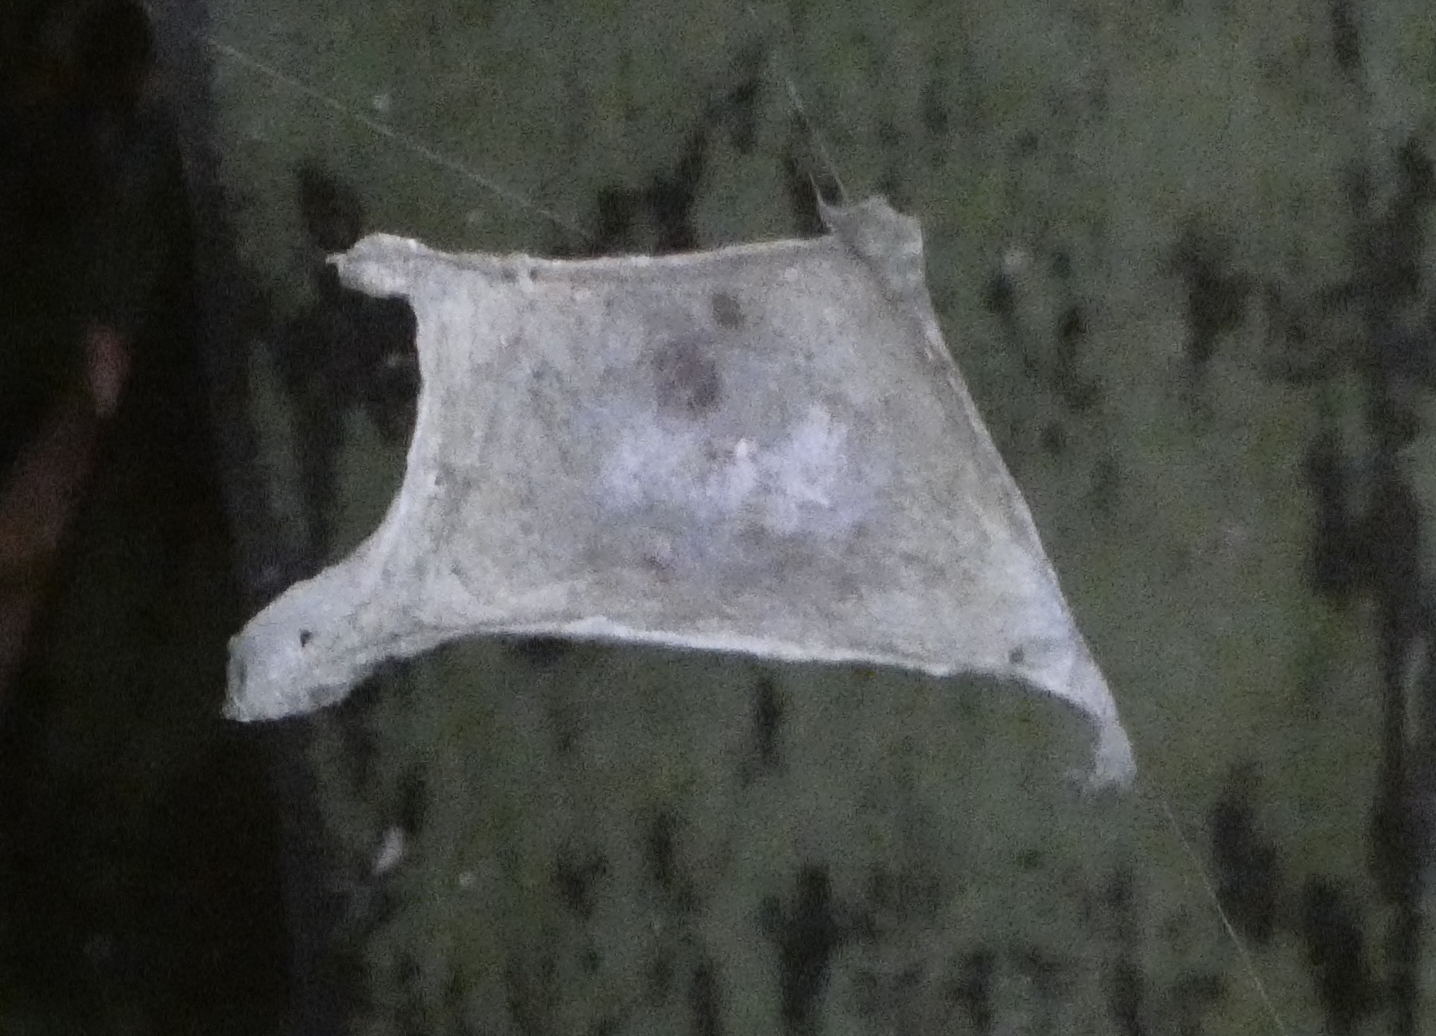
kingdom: Animalia
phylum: Arthropoda
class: Arachnida
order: Araneae
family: Araneidae
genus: Argiope
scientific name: Argiope argentata
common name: Orb weavers
